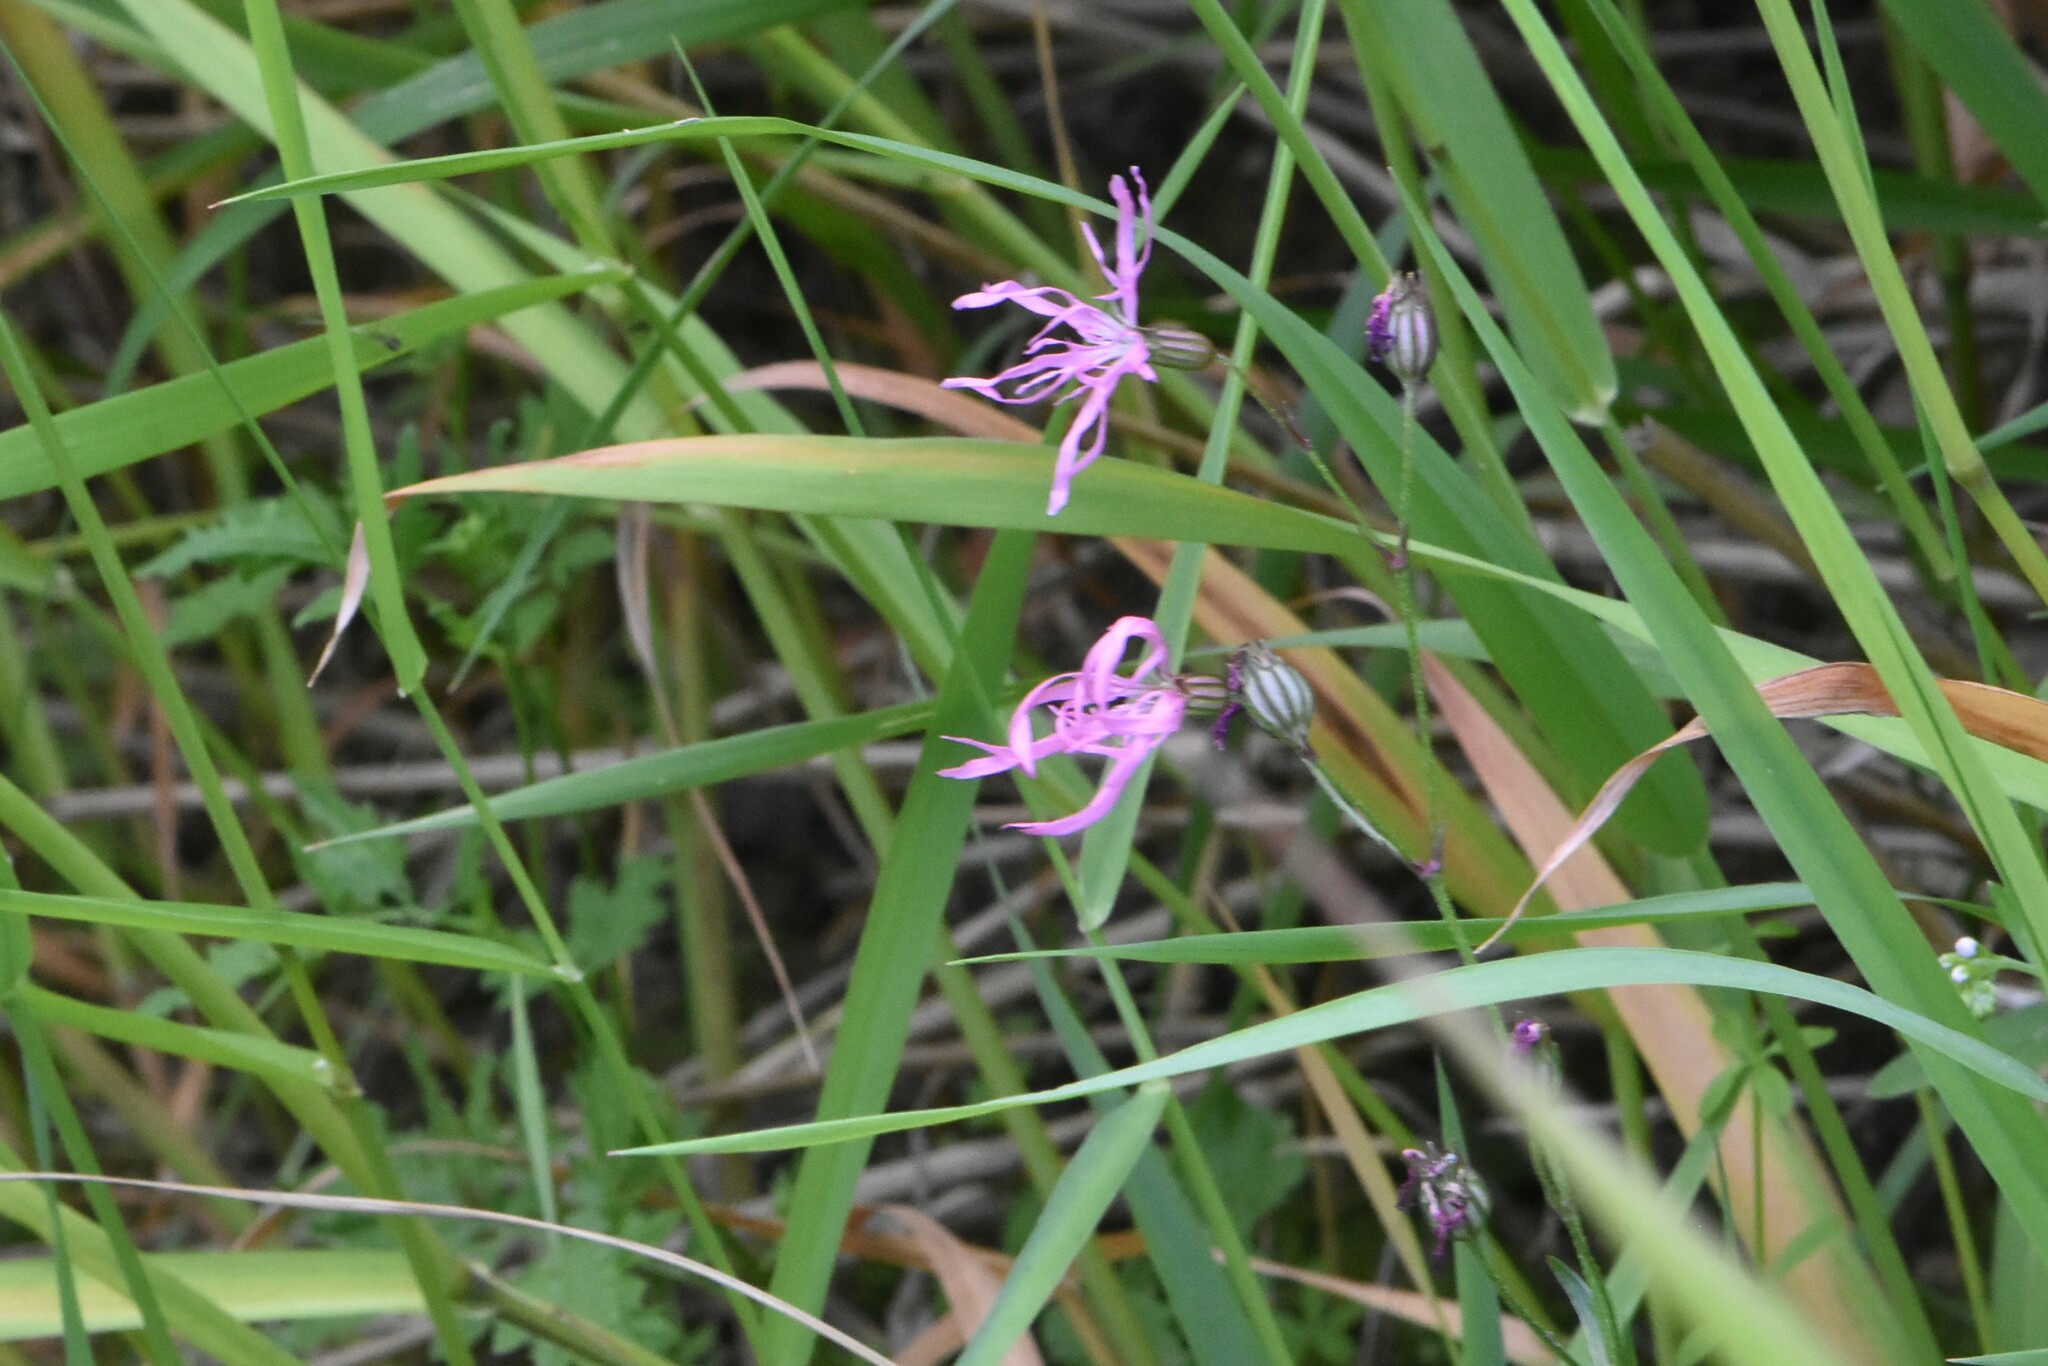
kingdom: Plantae
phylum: Tracheophyta
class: Magnoliopsida
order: Caryophyllales
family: Caryophyllaceae
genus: Silene
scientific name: Silene flos-cuculi
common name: Ragged-robin
